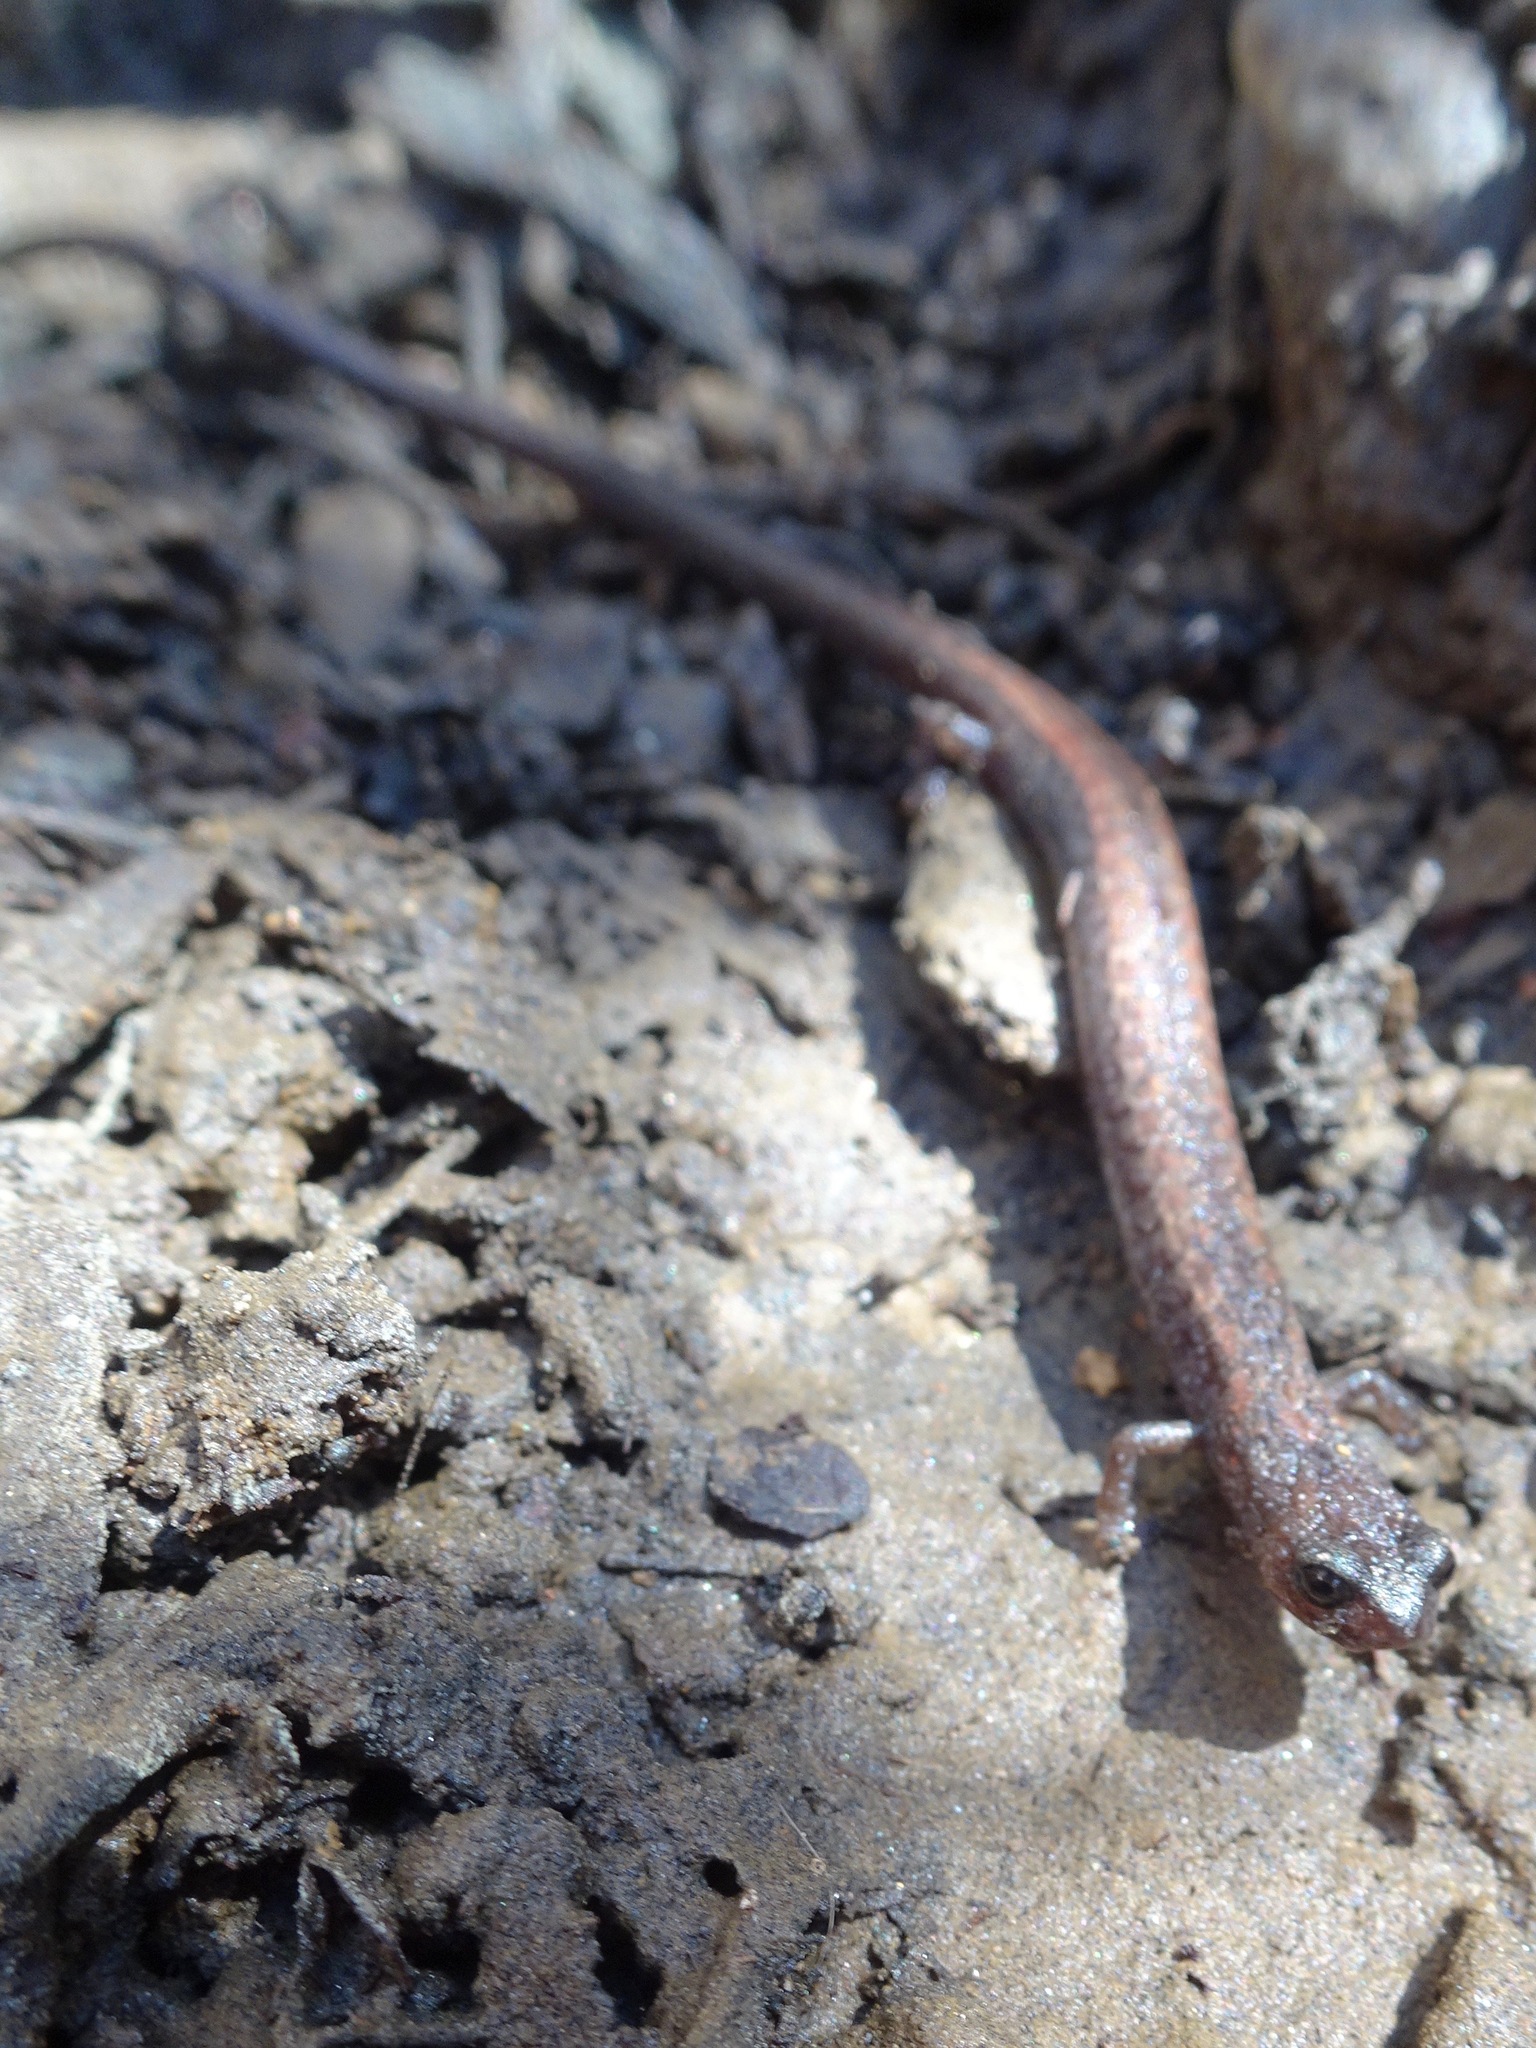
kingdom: Animalia
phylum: Chordata
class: Amphibia
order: Caudata
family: Plethodontidae
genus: Batrachoseps
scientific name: Batrachoseps nigriventris
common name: Black-bellied slender salamander
